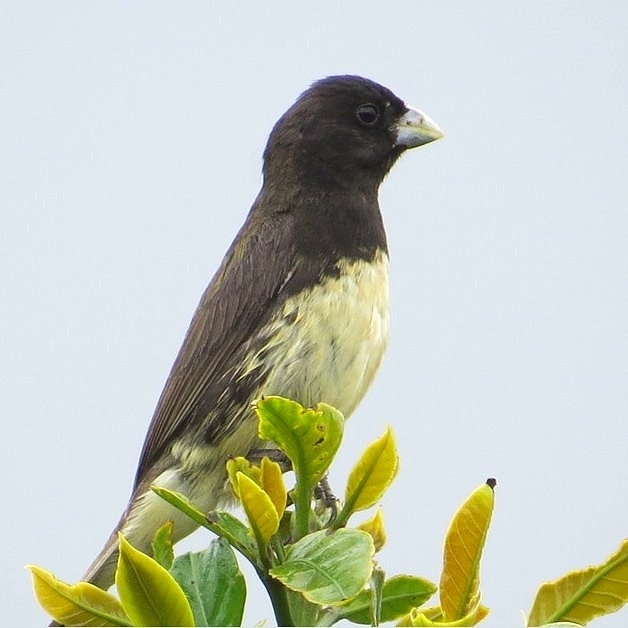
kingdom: Animalia
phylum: Chordata
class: Aves
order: Passeriformes
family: Thraupidae
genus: Sporophila
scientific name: Sporophila nigricollis
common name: Yellow-bellied seedeater
